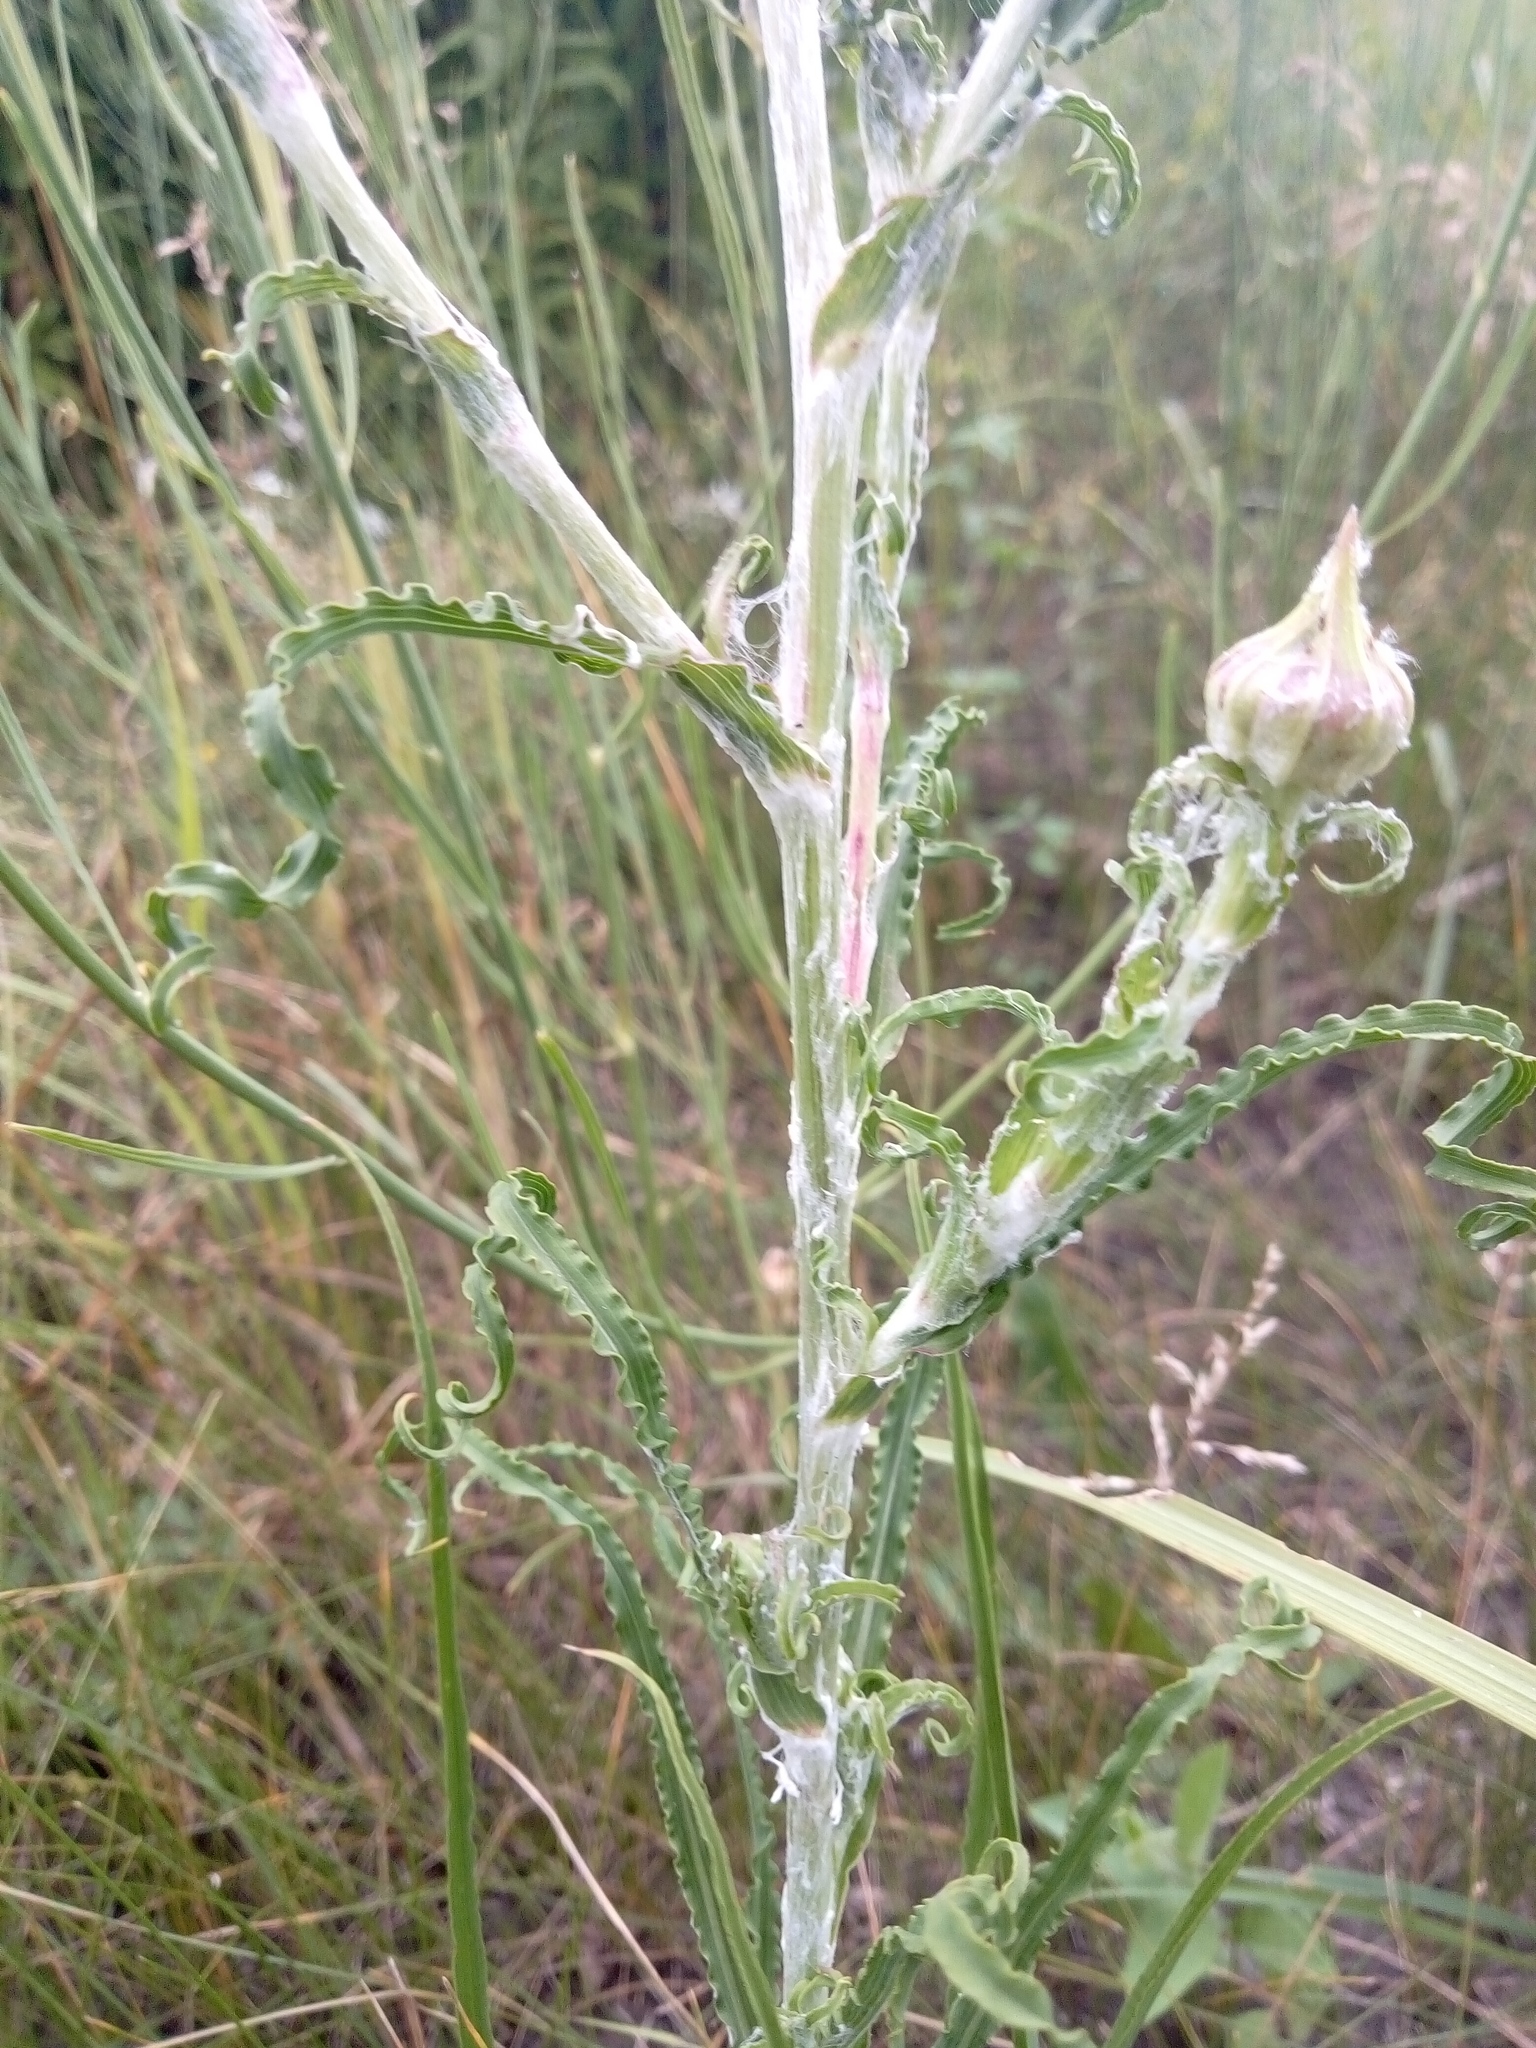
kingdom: Plantae
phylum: Tracheophyta
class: Magnoliopsida
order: Asterales
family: Asteraceae
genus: Tragopogon
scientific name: Tragopogon ucrainicus
